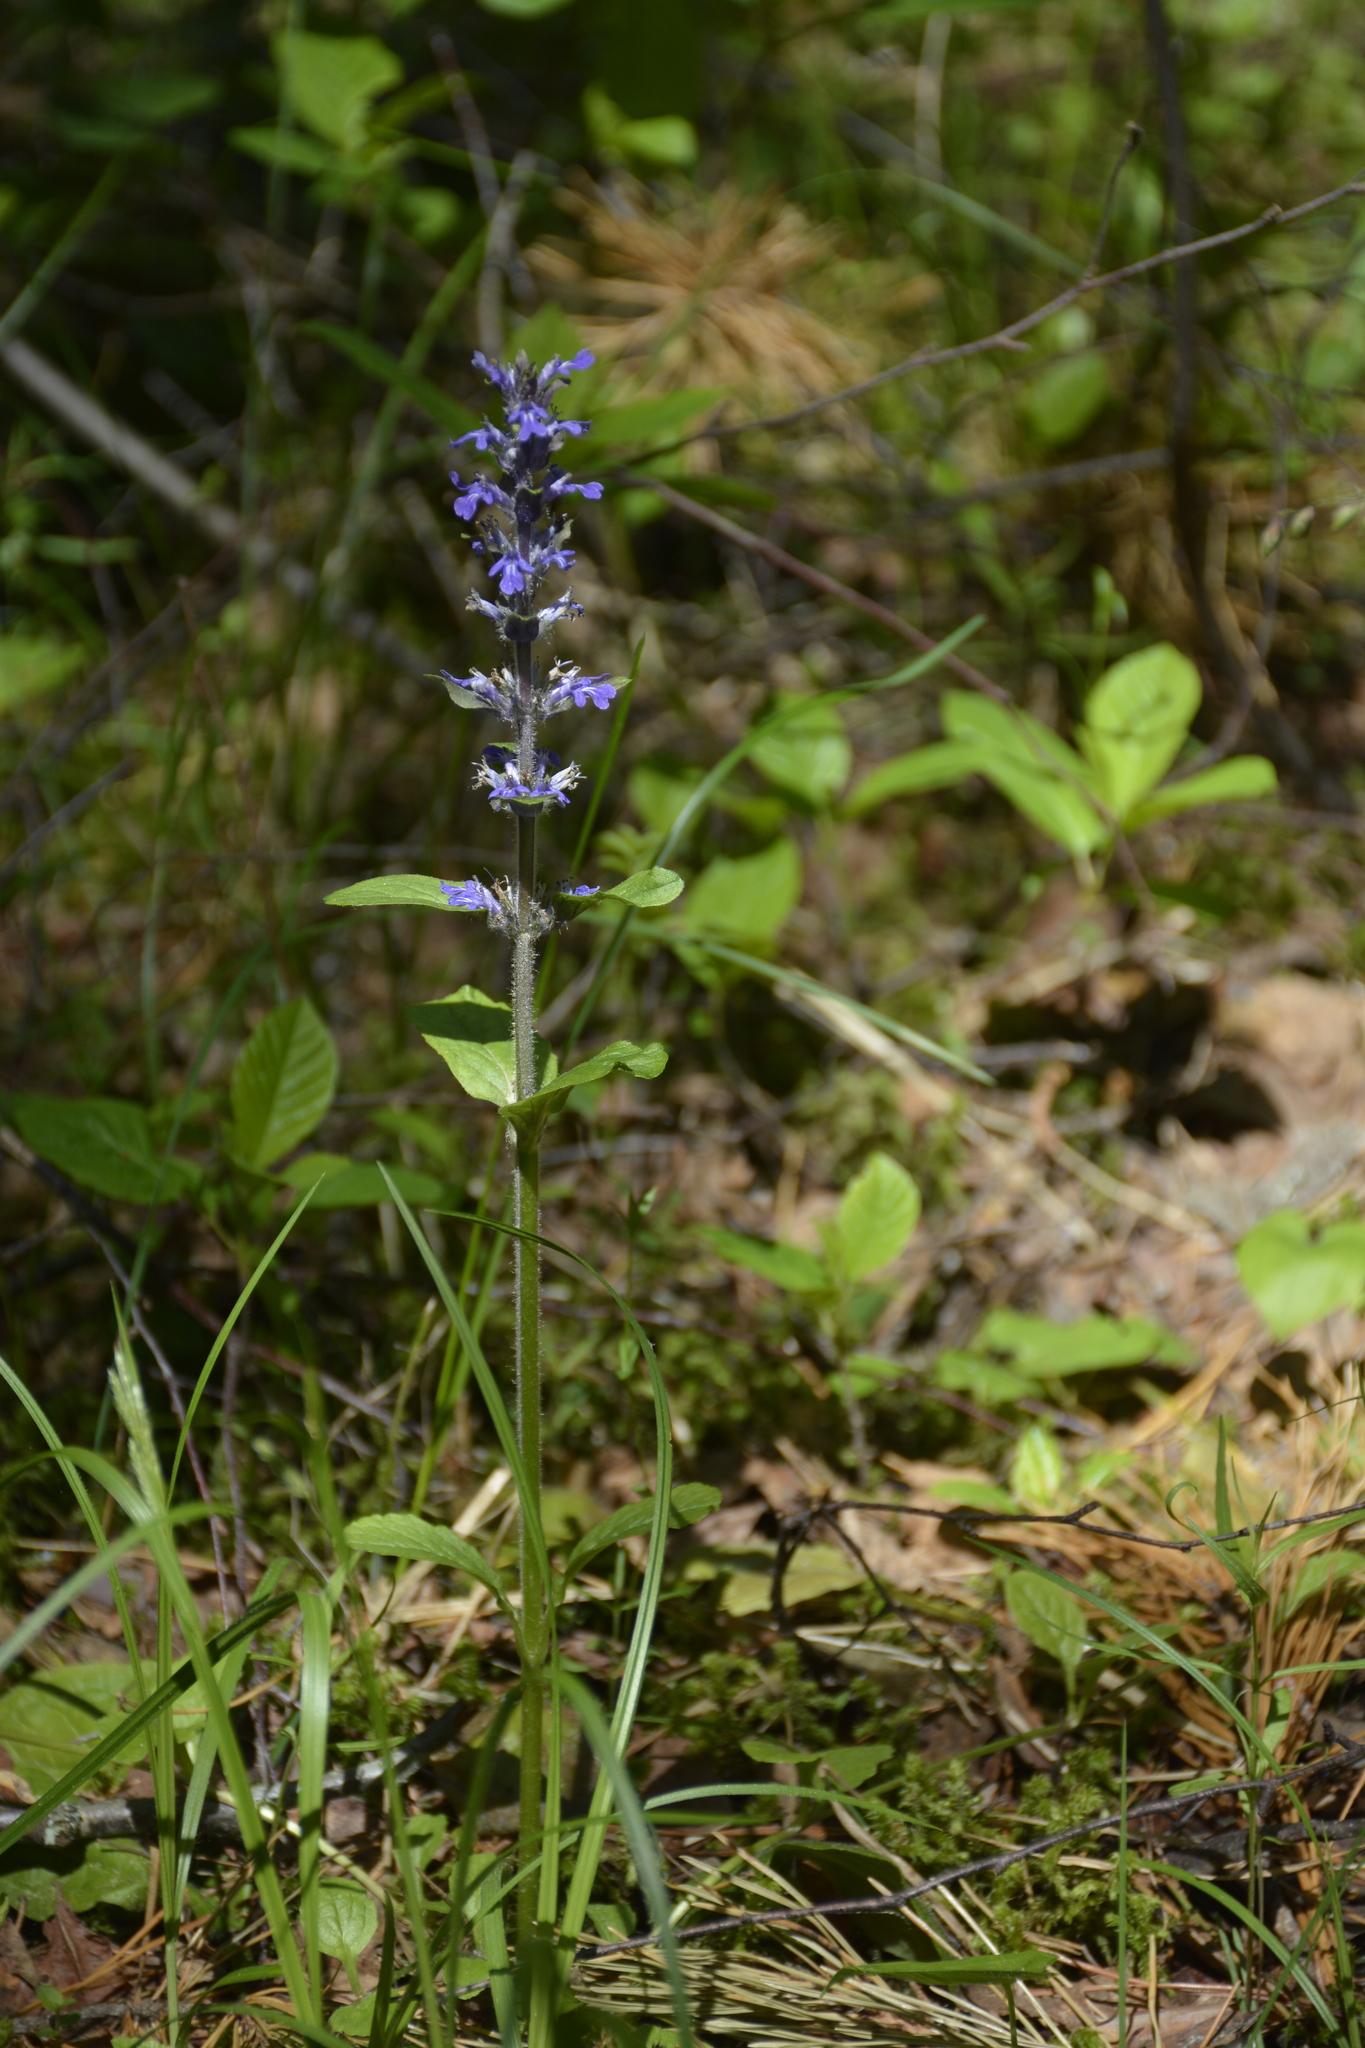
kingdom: Plantae
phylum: Tracheophyta
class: Magnoliopsida
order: Lamiales
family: Lamiaceae
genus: Ajuga
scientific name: Ajuga reptans
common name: Bugle
